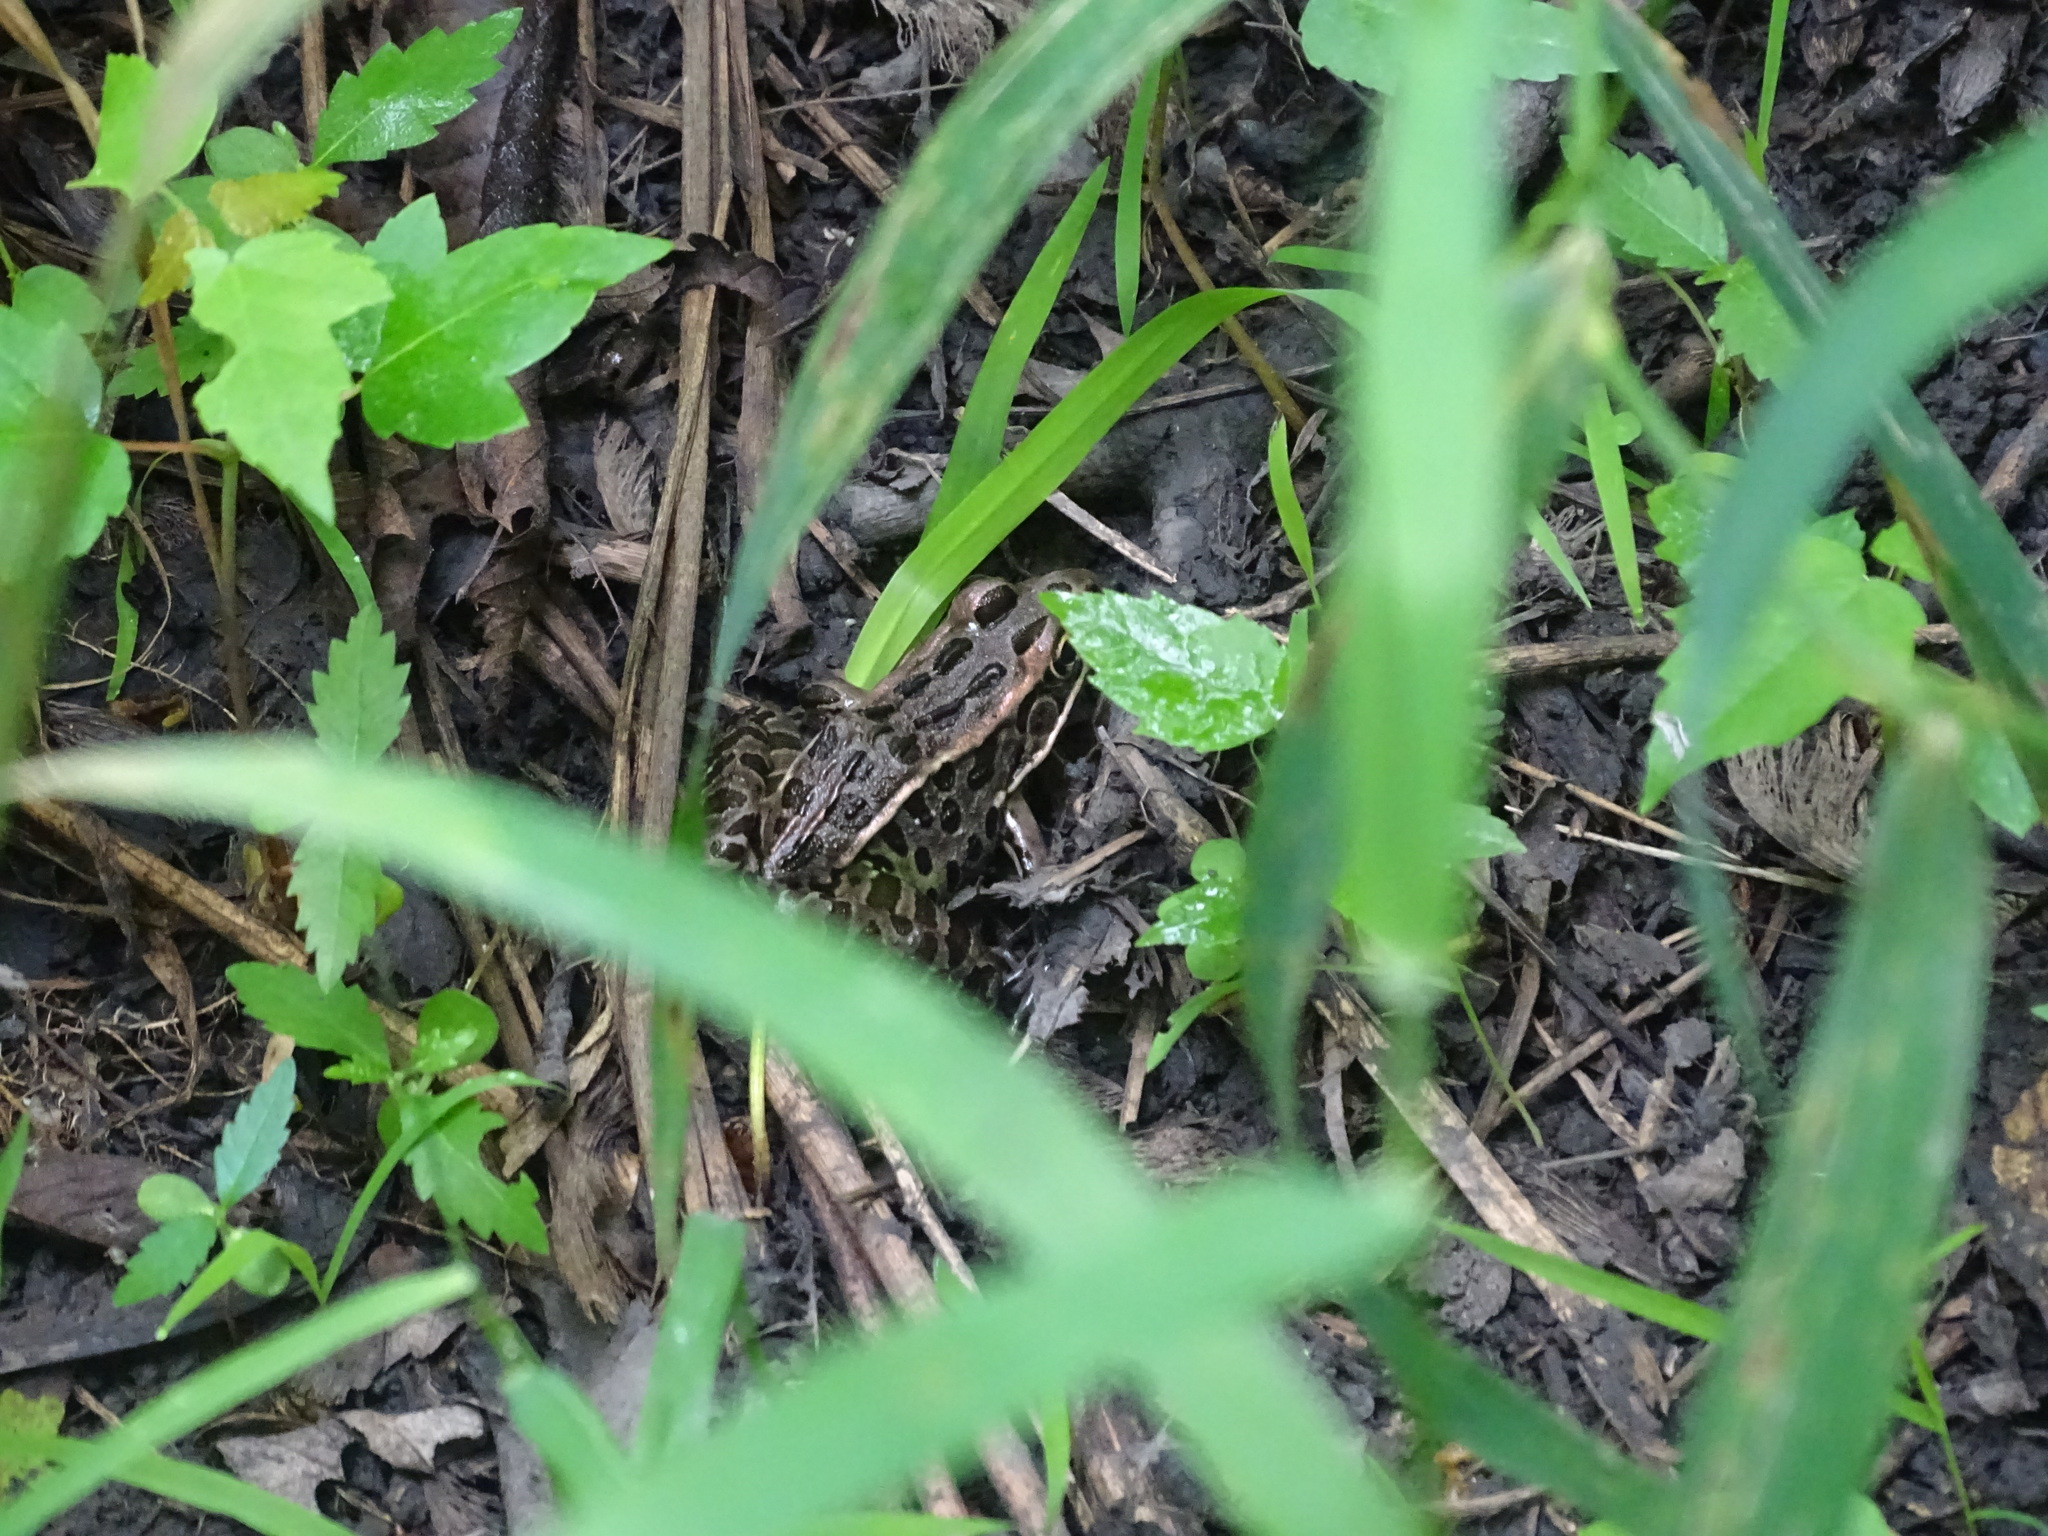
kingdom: Animalia
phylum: Chordata
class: Amphibia
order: Anura
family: Ranidae
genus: Lithobates
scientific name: Lithobates pipiens
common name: Northern leopard frog
